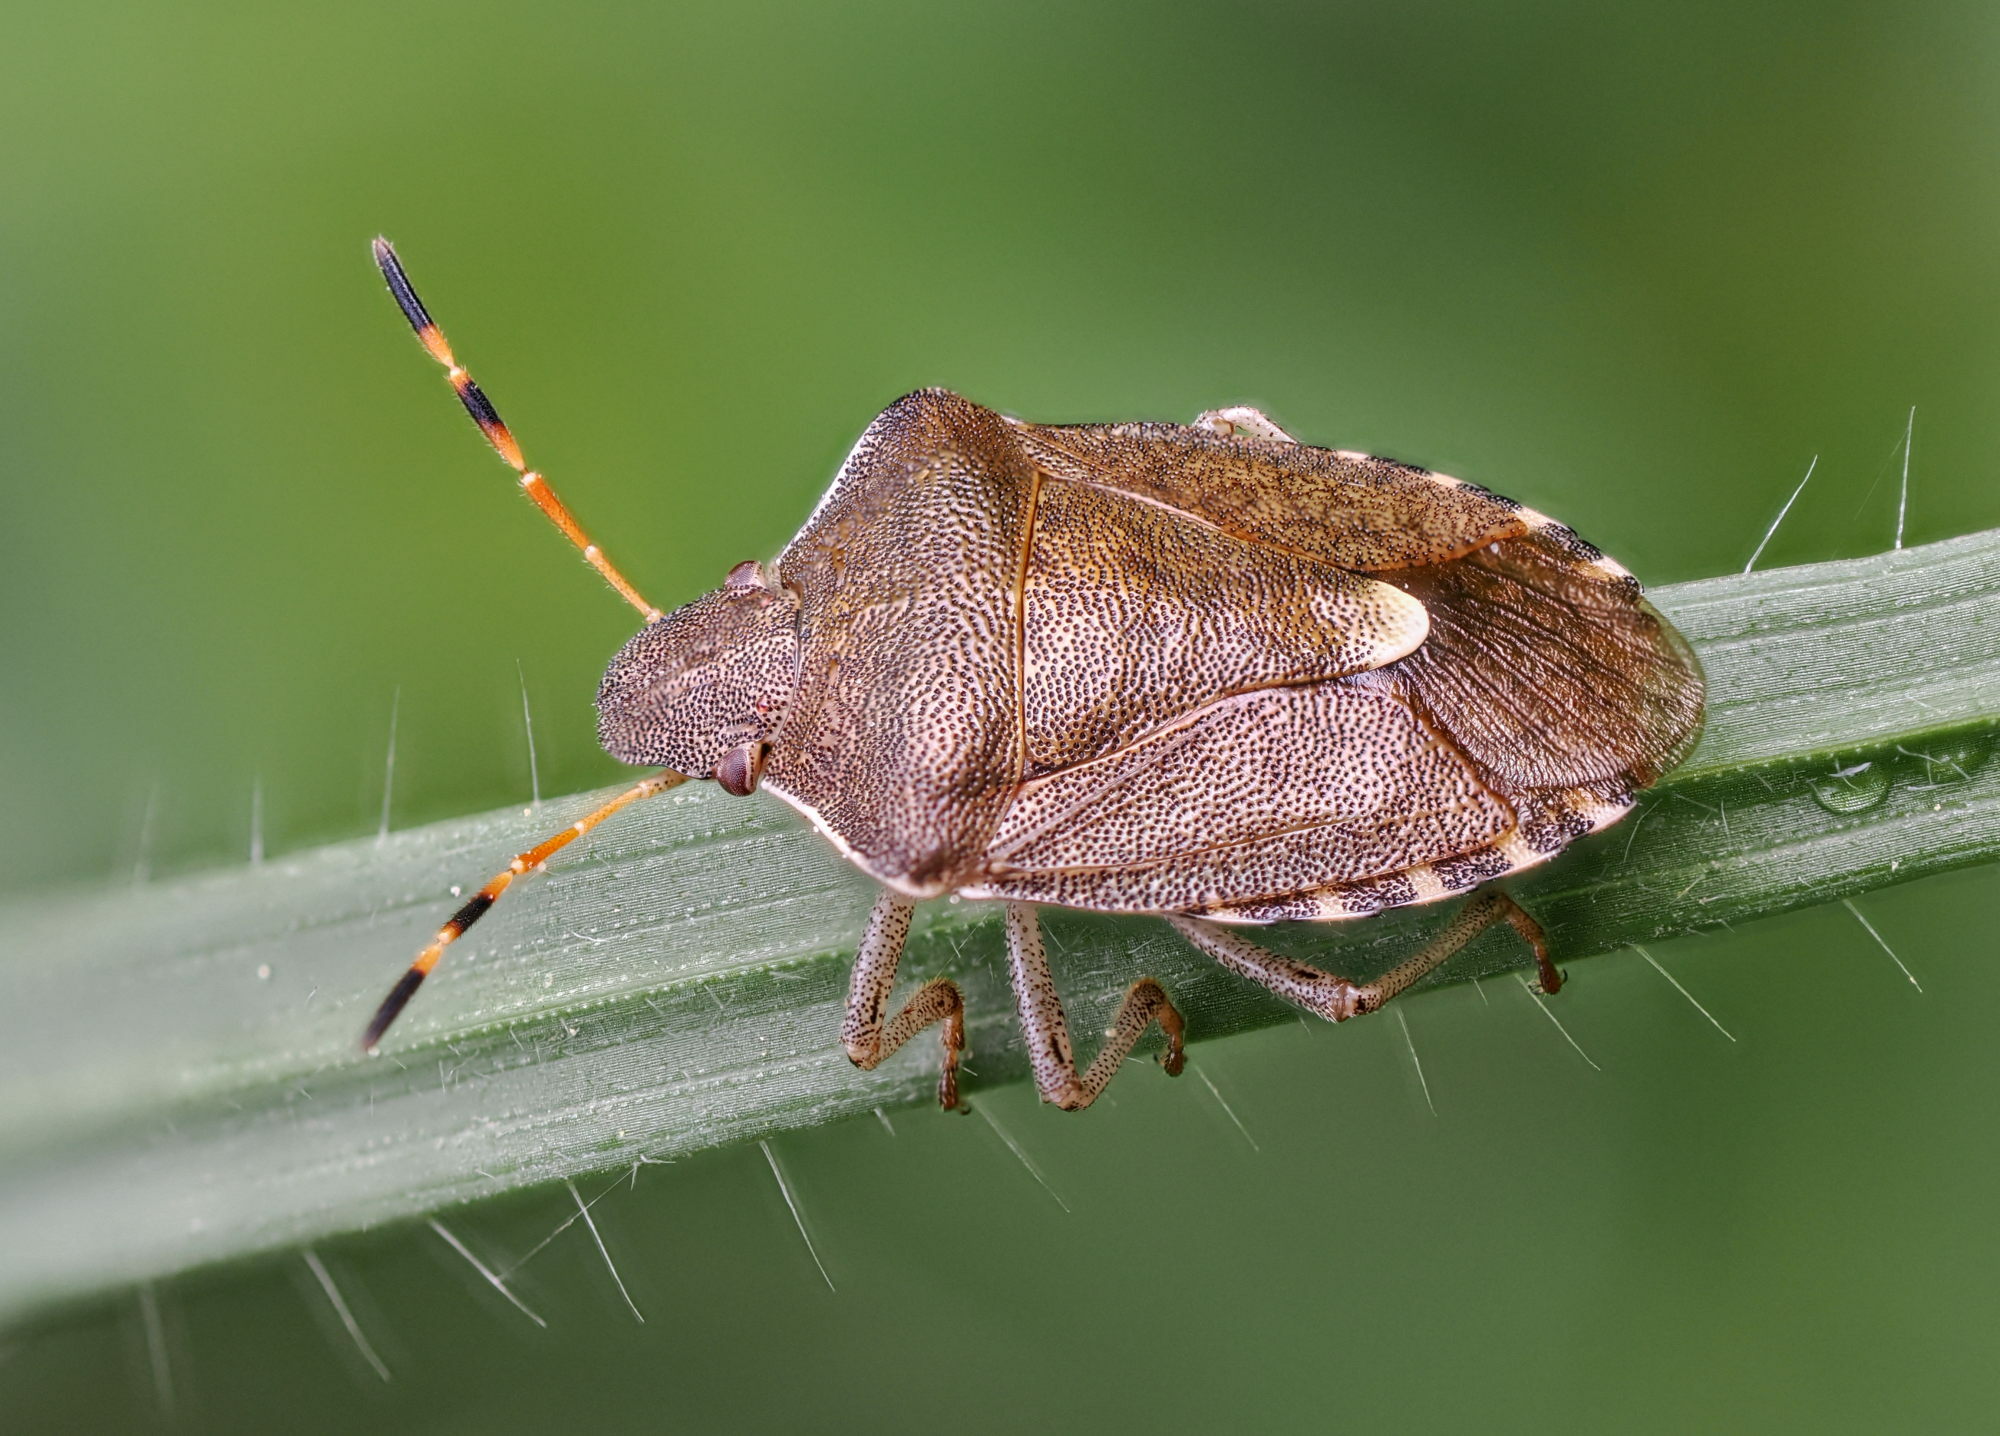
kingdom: Animalia
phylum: Arthropoda
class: Insecta
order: Hemiptera
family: Pentatomidae
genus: Holcostethus
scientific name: Holcostethus strictus
